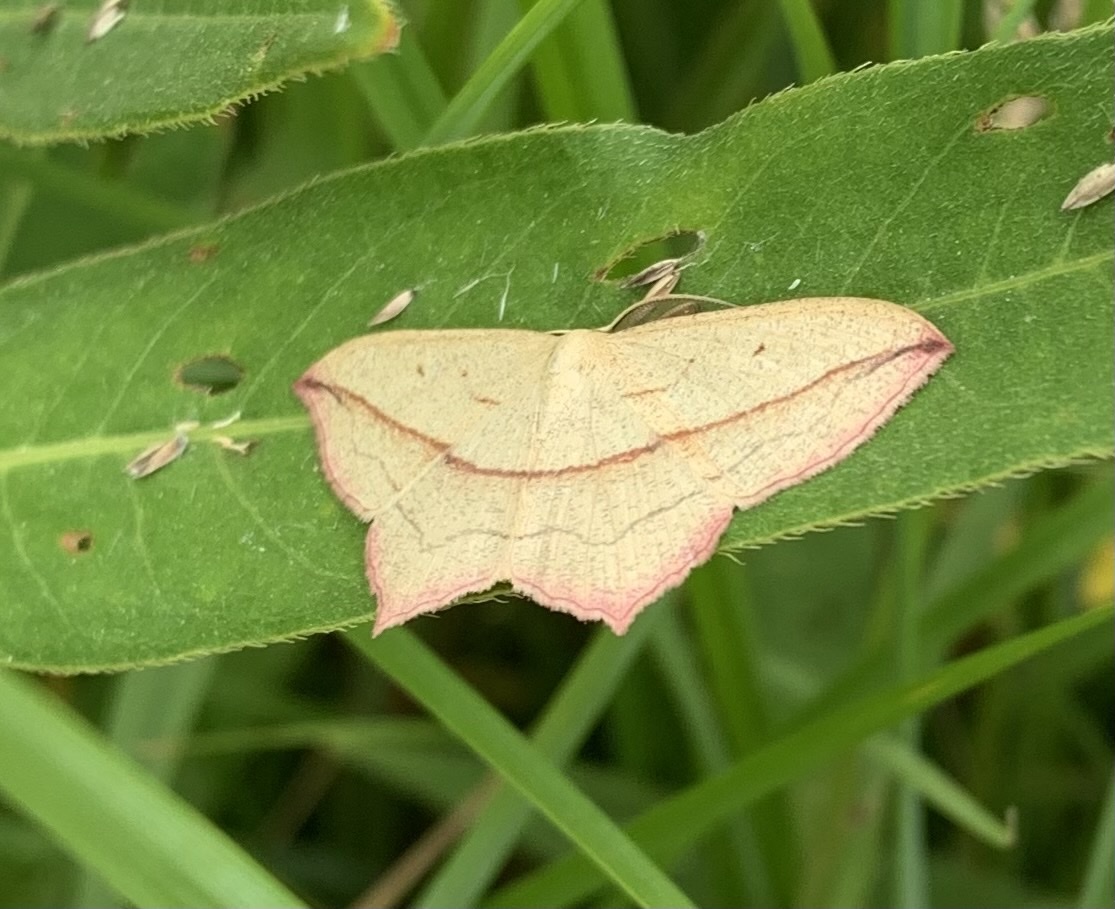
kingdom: Animalia
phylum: Arthropoda
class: Insecta
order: Lepidoptera
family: Geometridae
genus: Timandra
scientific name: Timandra comae
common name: Blood-vein
